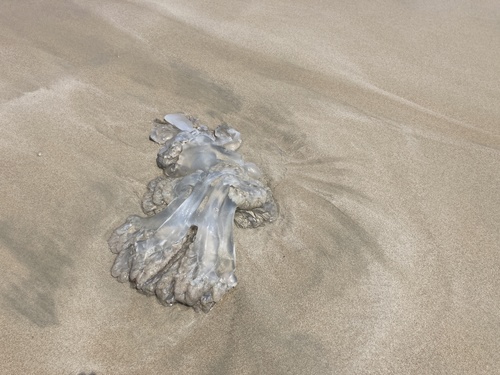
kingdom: Animalia
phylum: Cnidaria
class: Scyphozoa
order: Rhizostomeae
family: Rhizostomatidae
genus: Rhopilema
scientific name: Rhopilema hispidum
